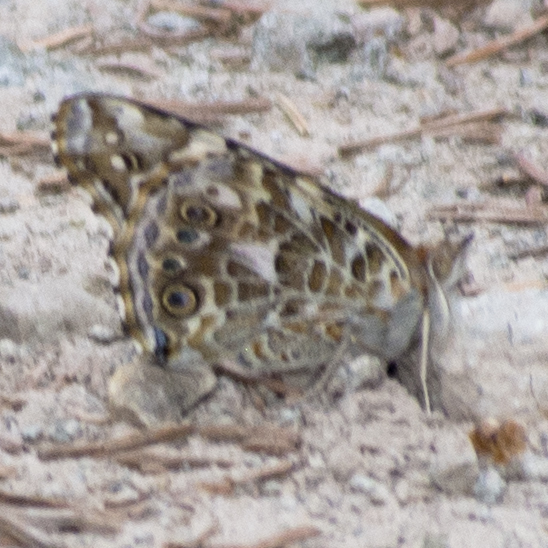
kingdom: Animalia
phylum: Arthropoda
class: Insecta
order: Lepidoptera
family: Nymphalidae
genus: Vanessa
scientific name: Vanessa cardui
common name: Painted lady
